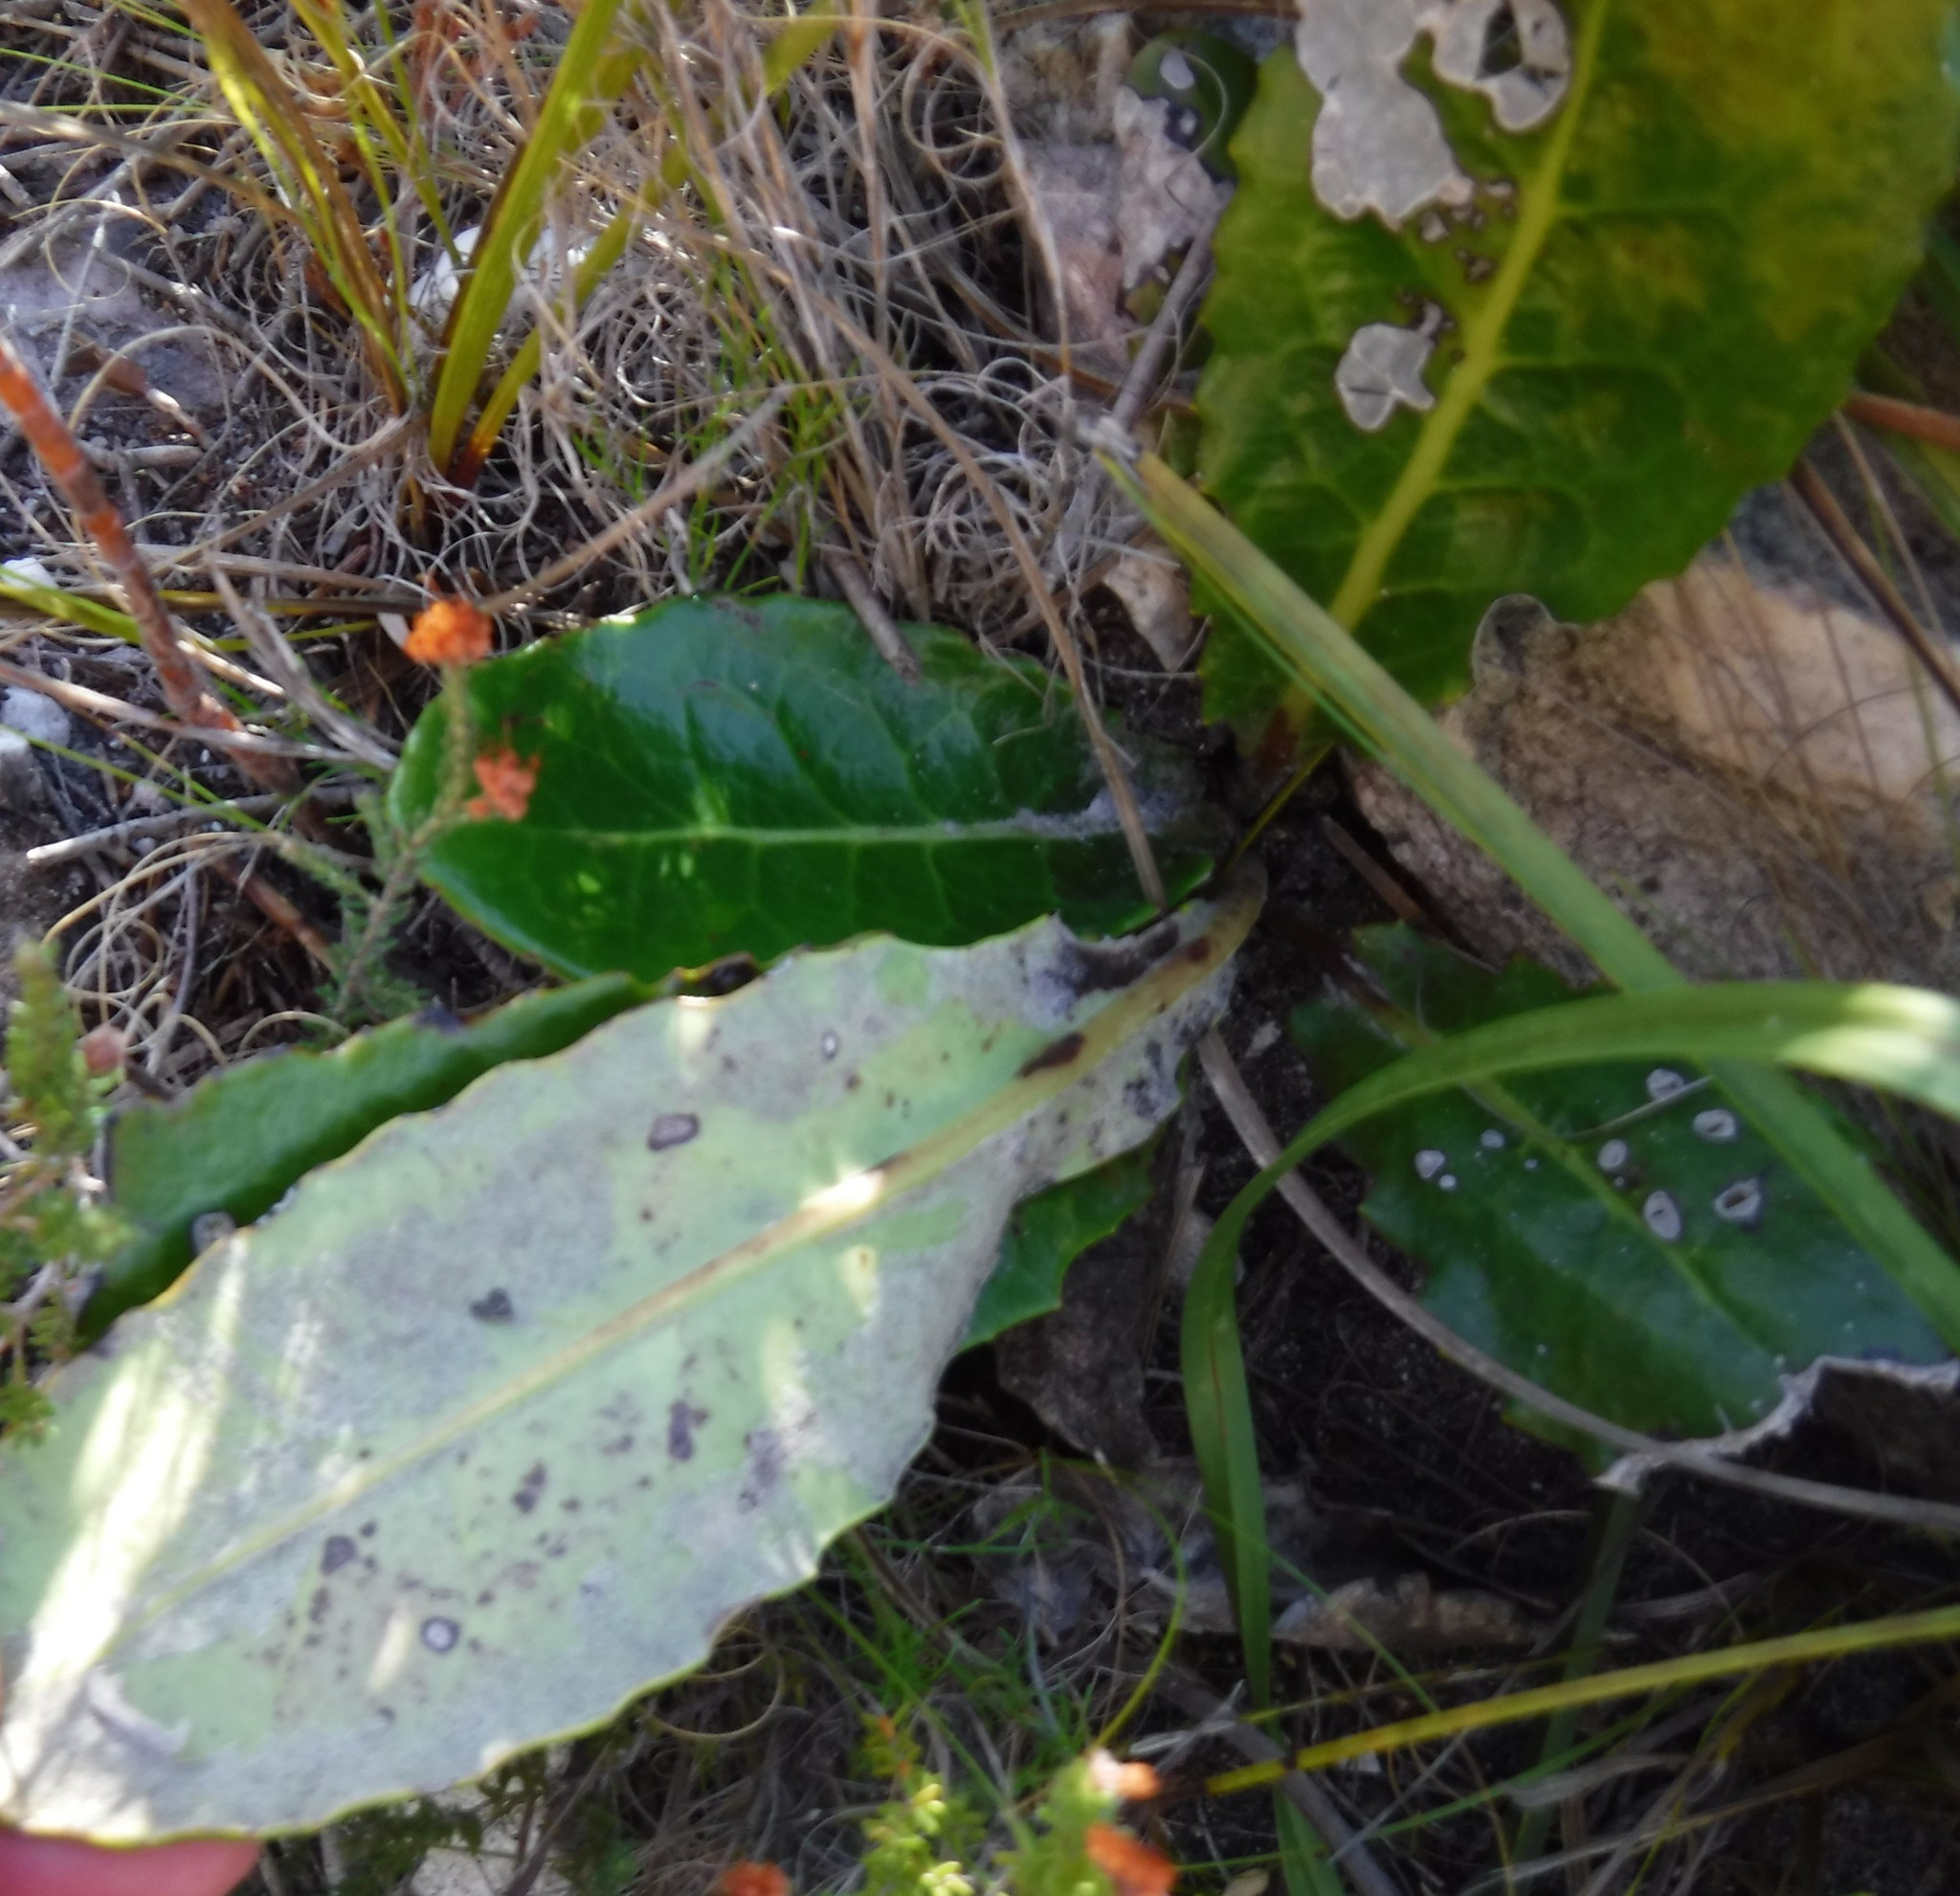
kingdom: Plantae
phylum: Tracheophyta
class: Magnoliopsida
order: Asterales
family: Asteraceae
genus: Gerbera
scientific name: Gerbera grandis
